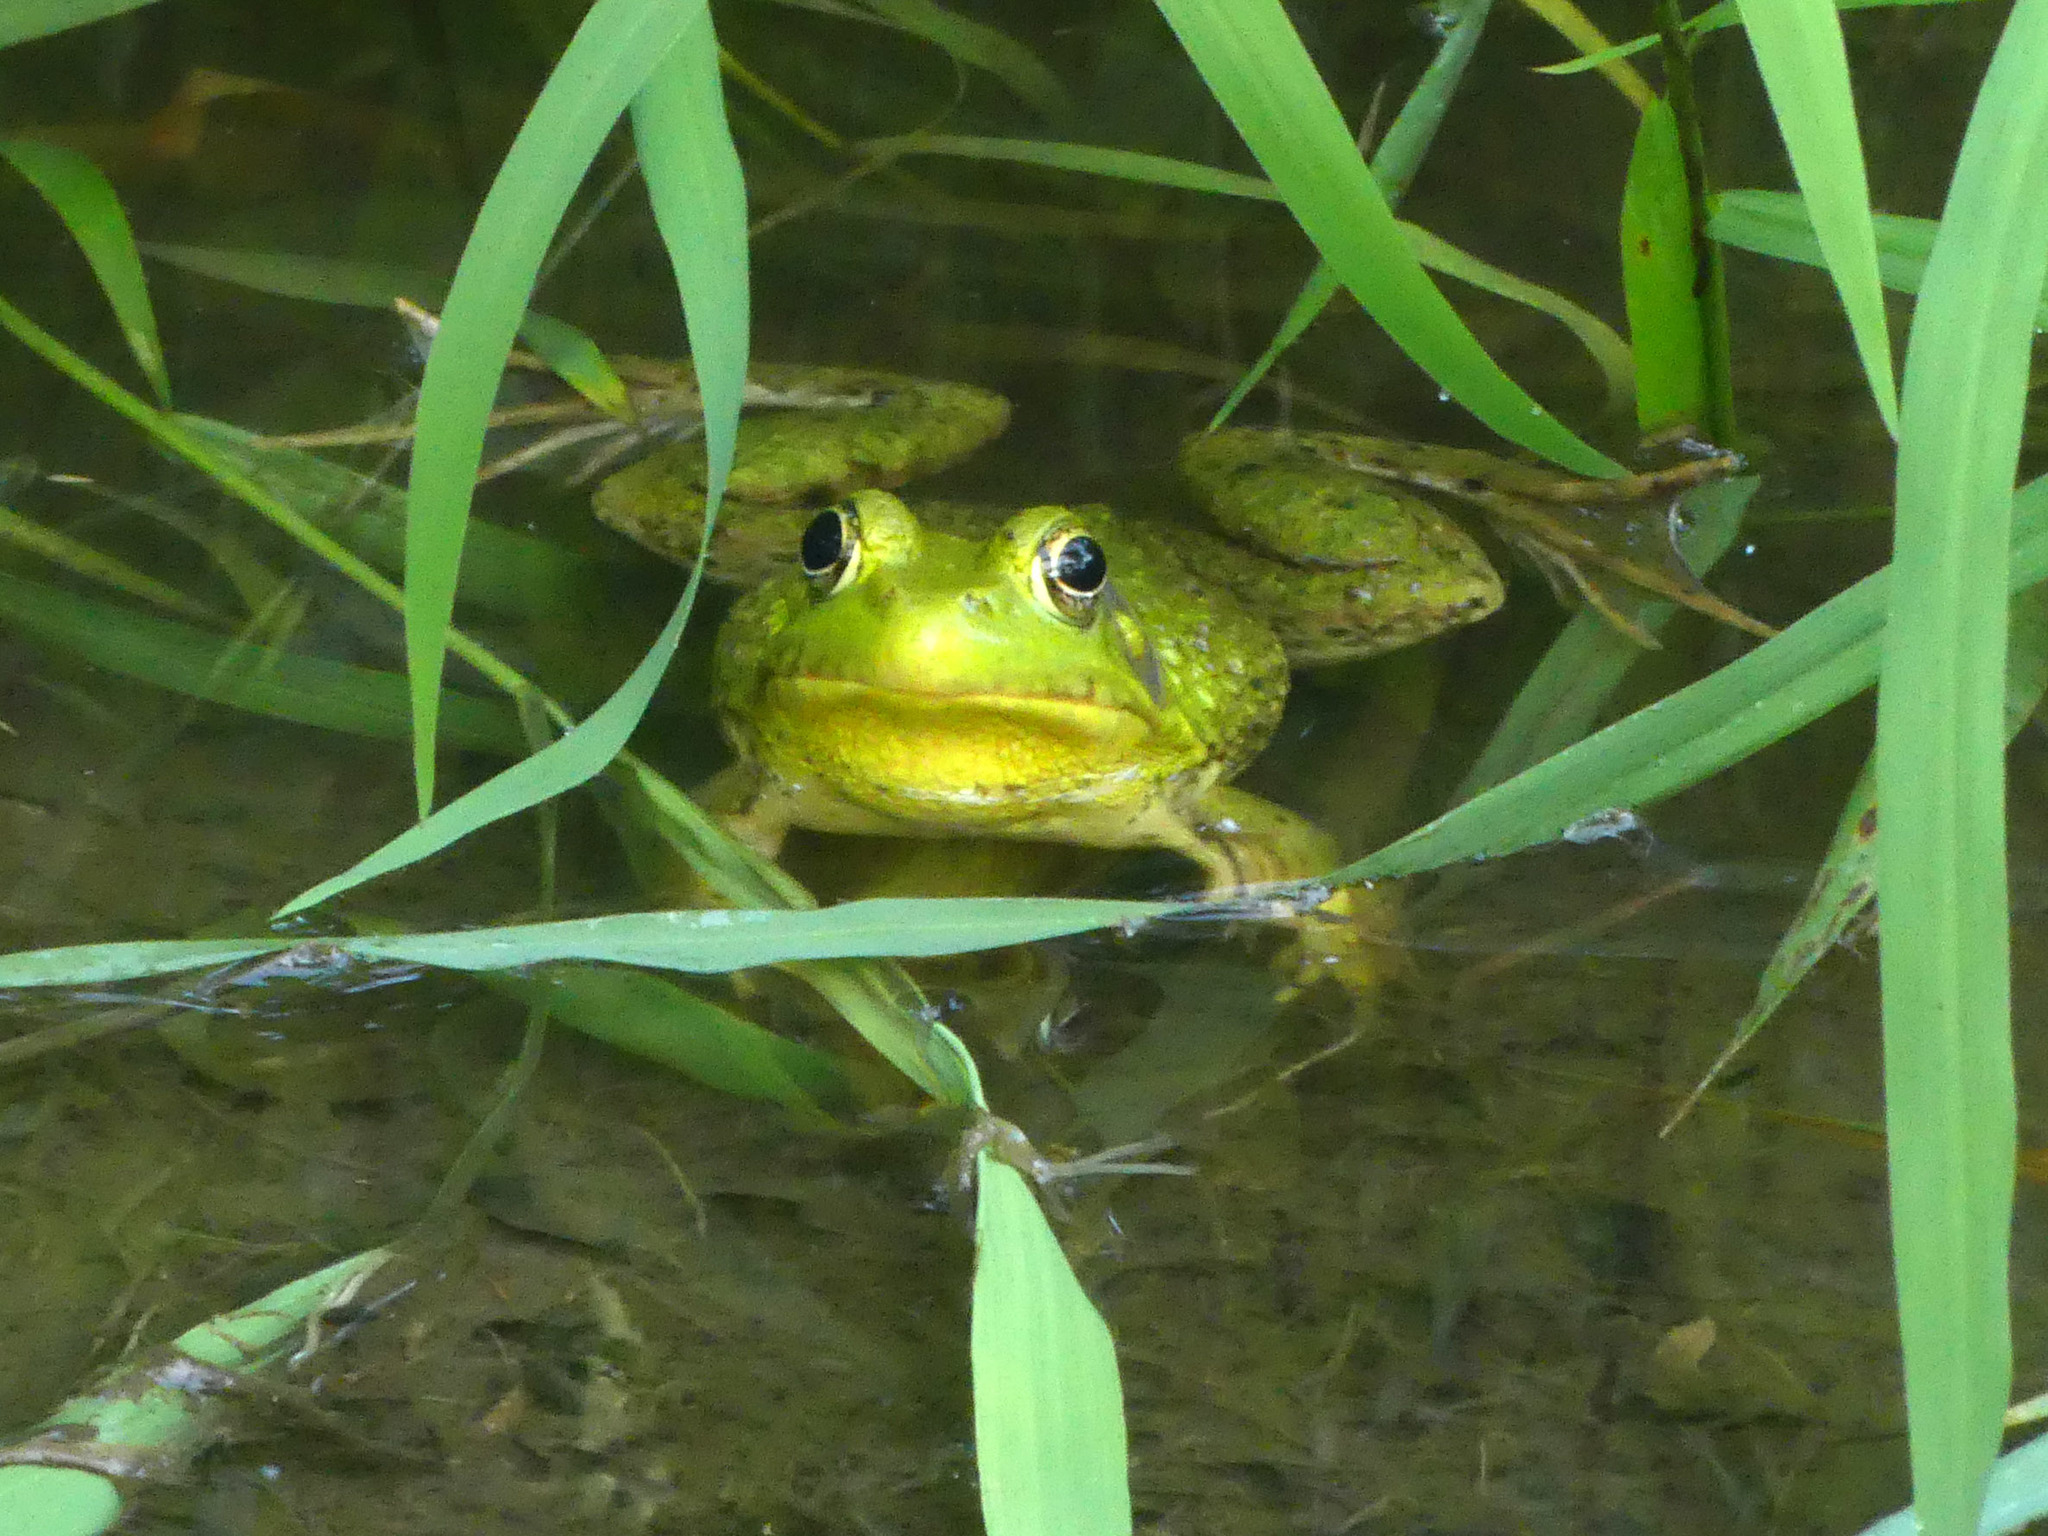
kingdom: Animalia
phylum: Chordata
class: Amphibia
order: Anura
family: Ranidae
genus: Lithobates
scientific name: Lithobates clamitans
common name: Green frog
